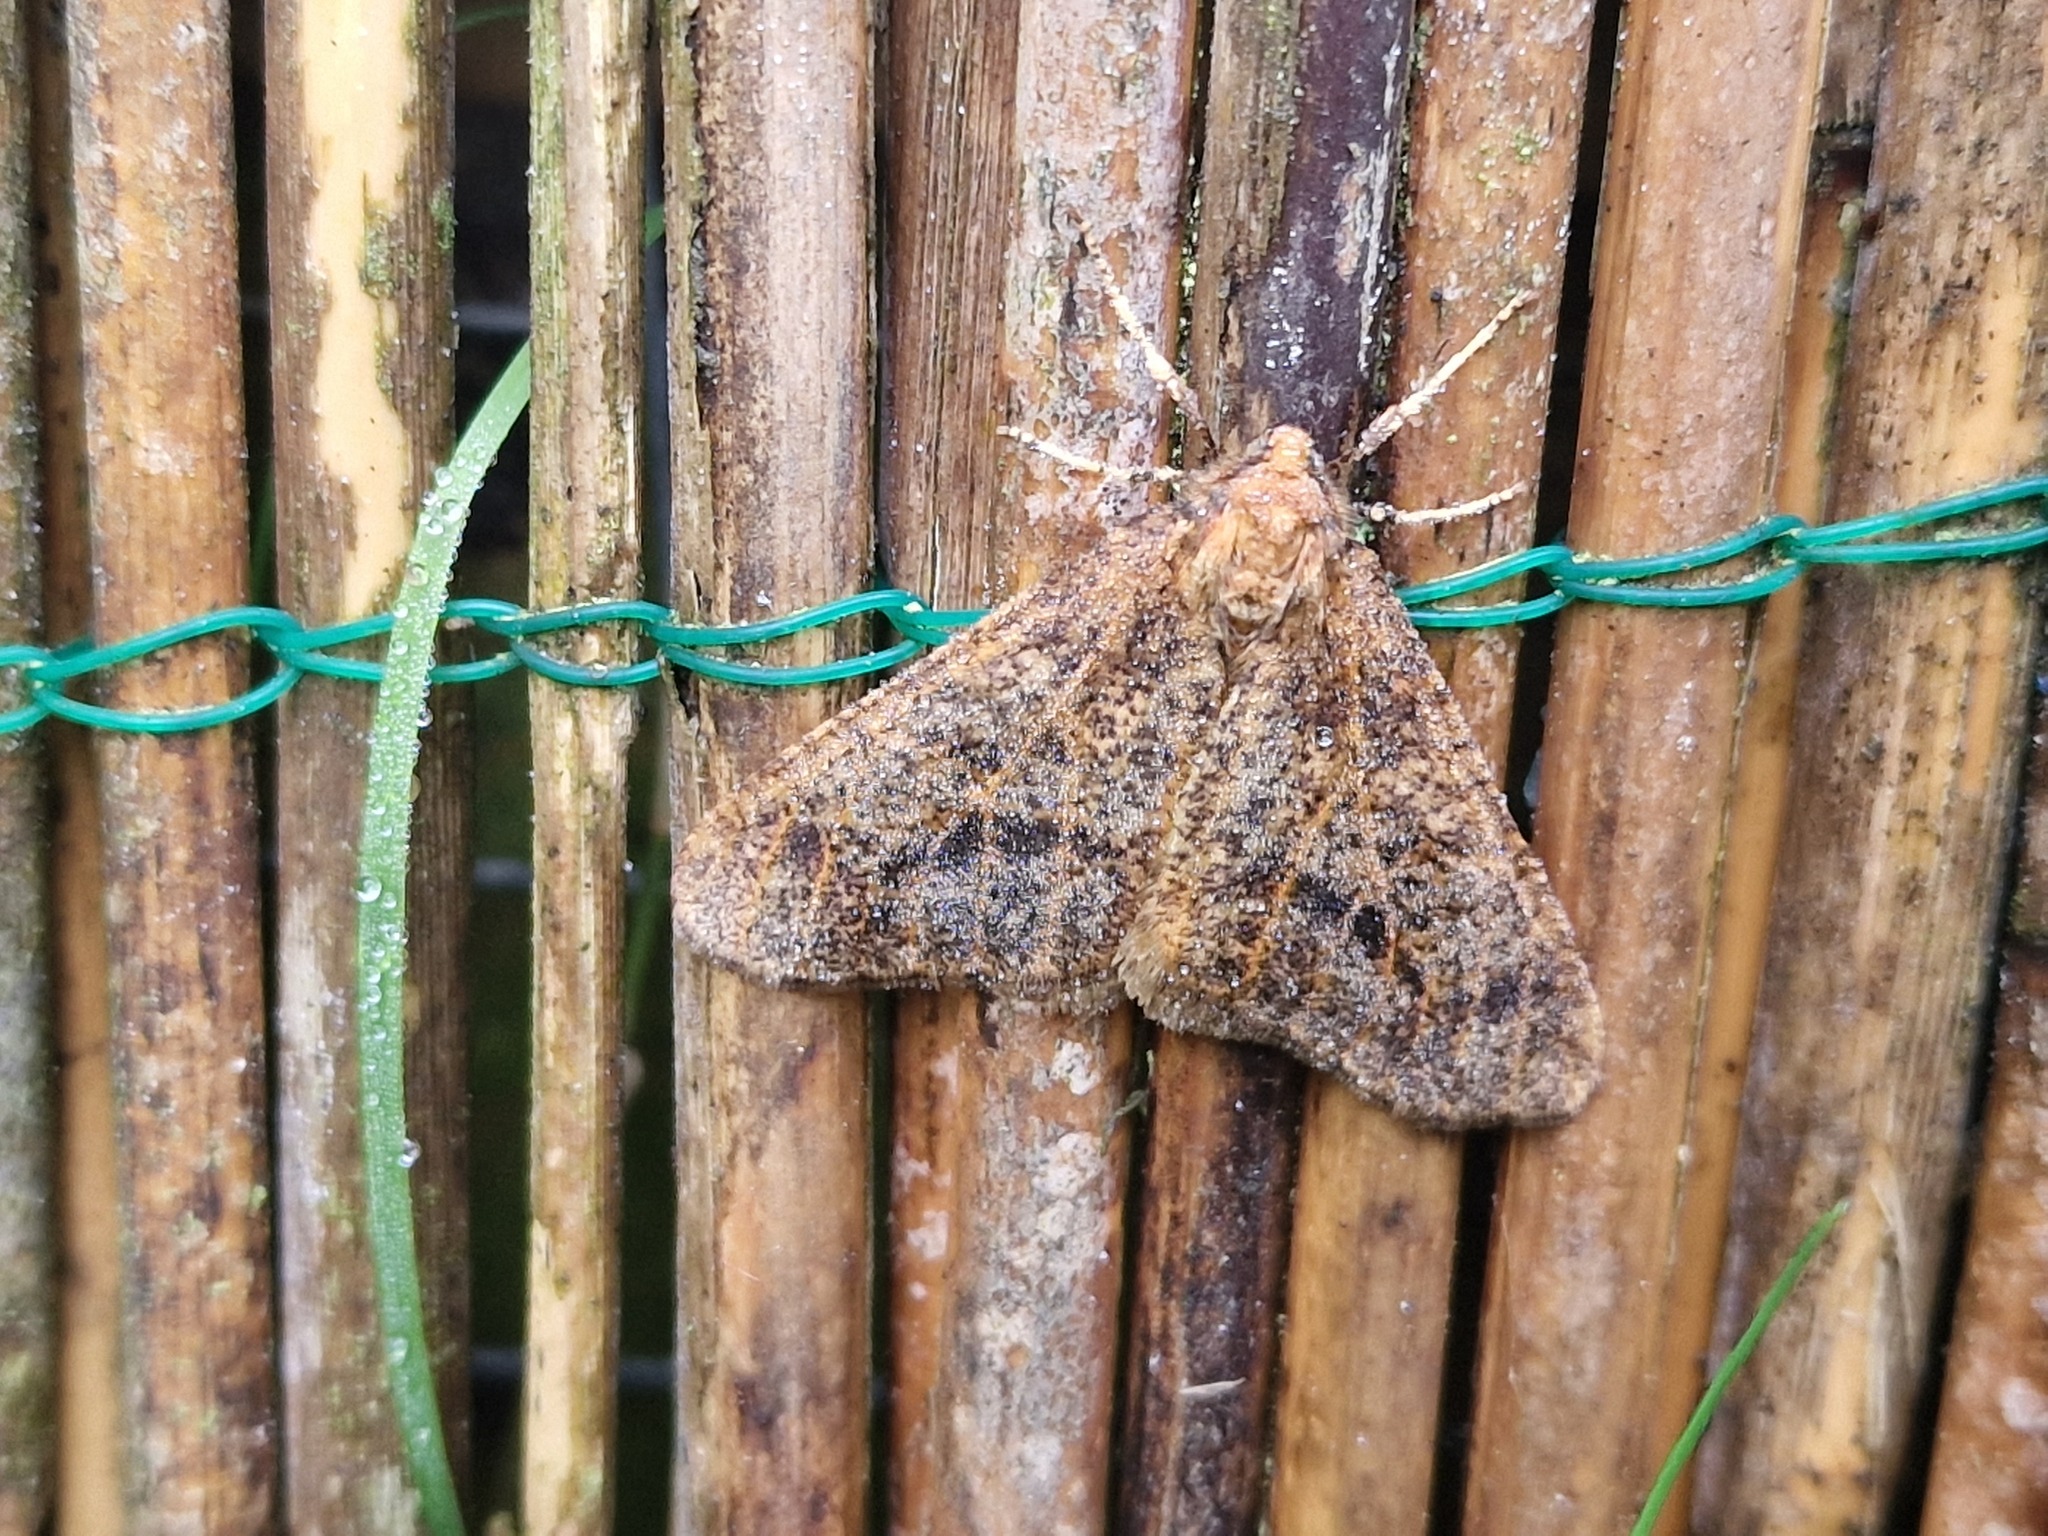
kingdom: Animalia
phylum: Arthropoda
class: Insecta
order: Lepidoptera
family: Geometridae
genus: Erannis
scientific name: Erannis defoliaria
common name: Mottled umber
